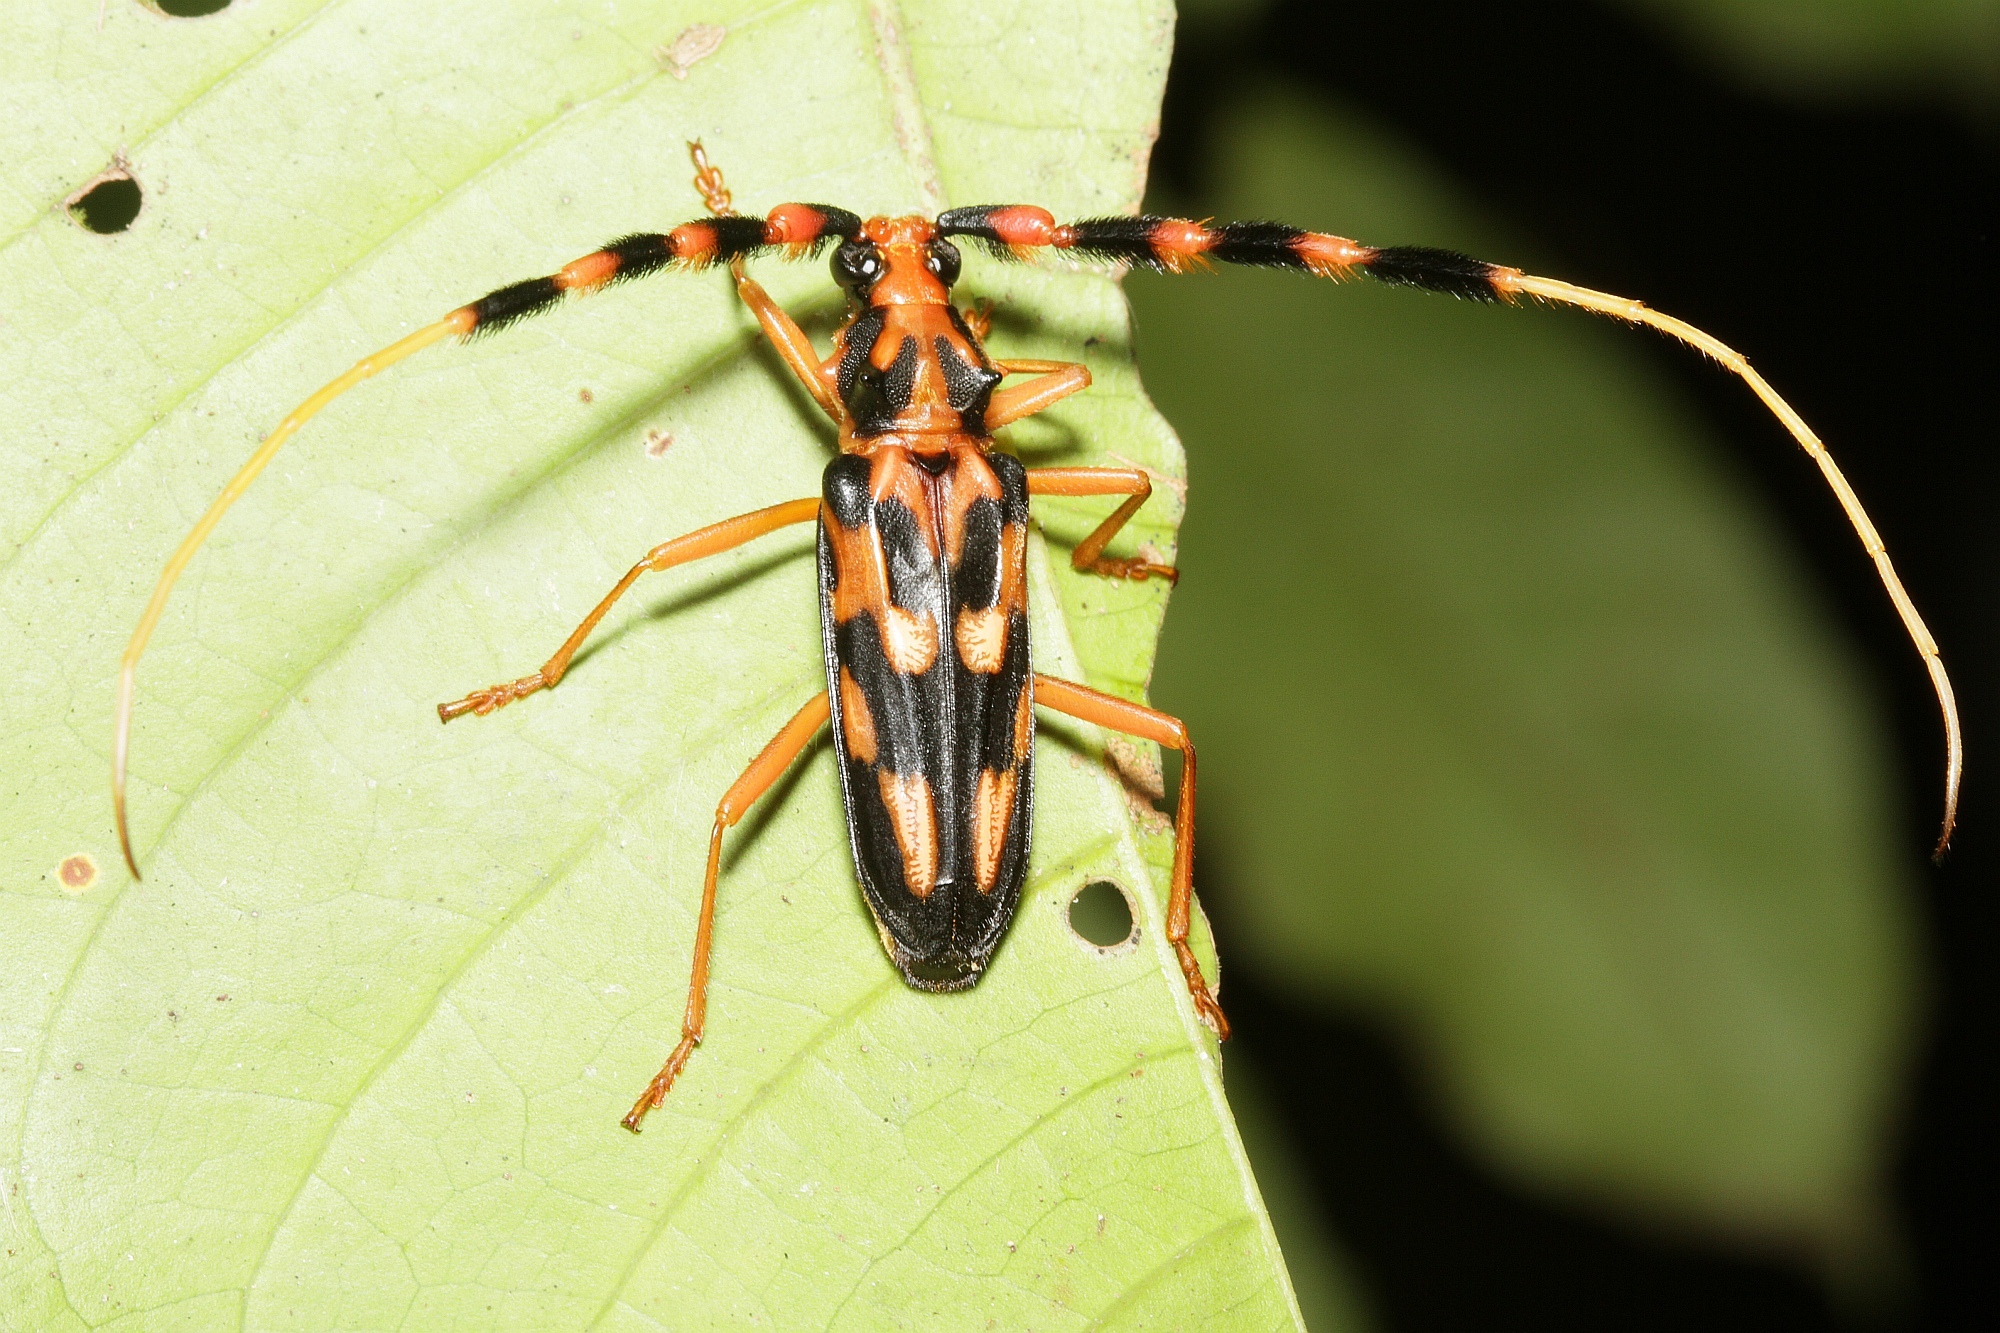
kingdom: Animalia
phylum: Arthropoda
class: Insecta
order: Coleoptera
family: Cerambycidae
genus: Batus
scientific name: Batus barbicornis
